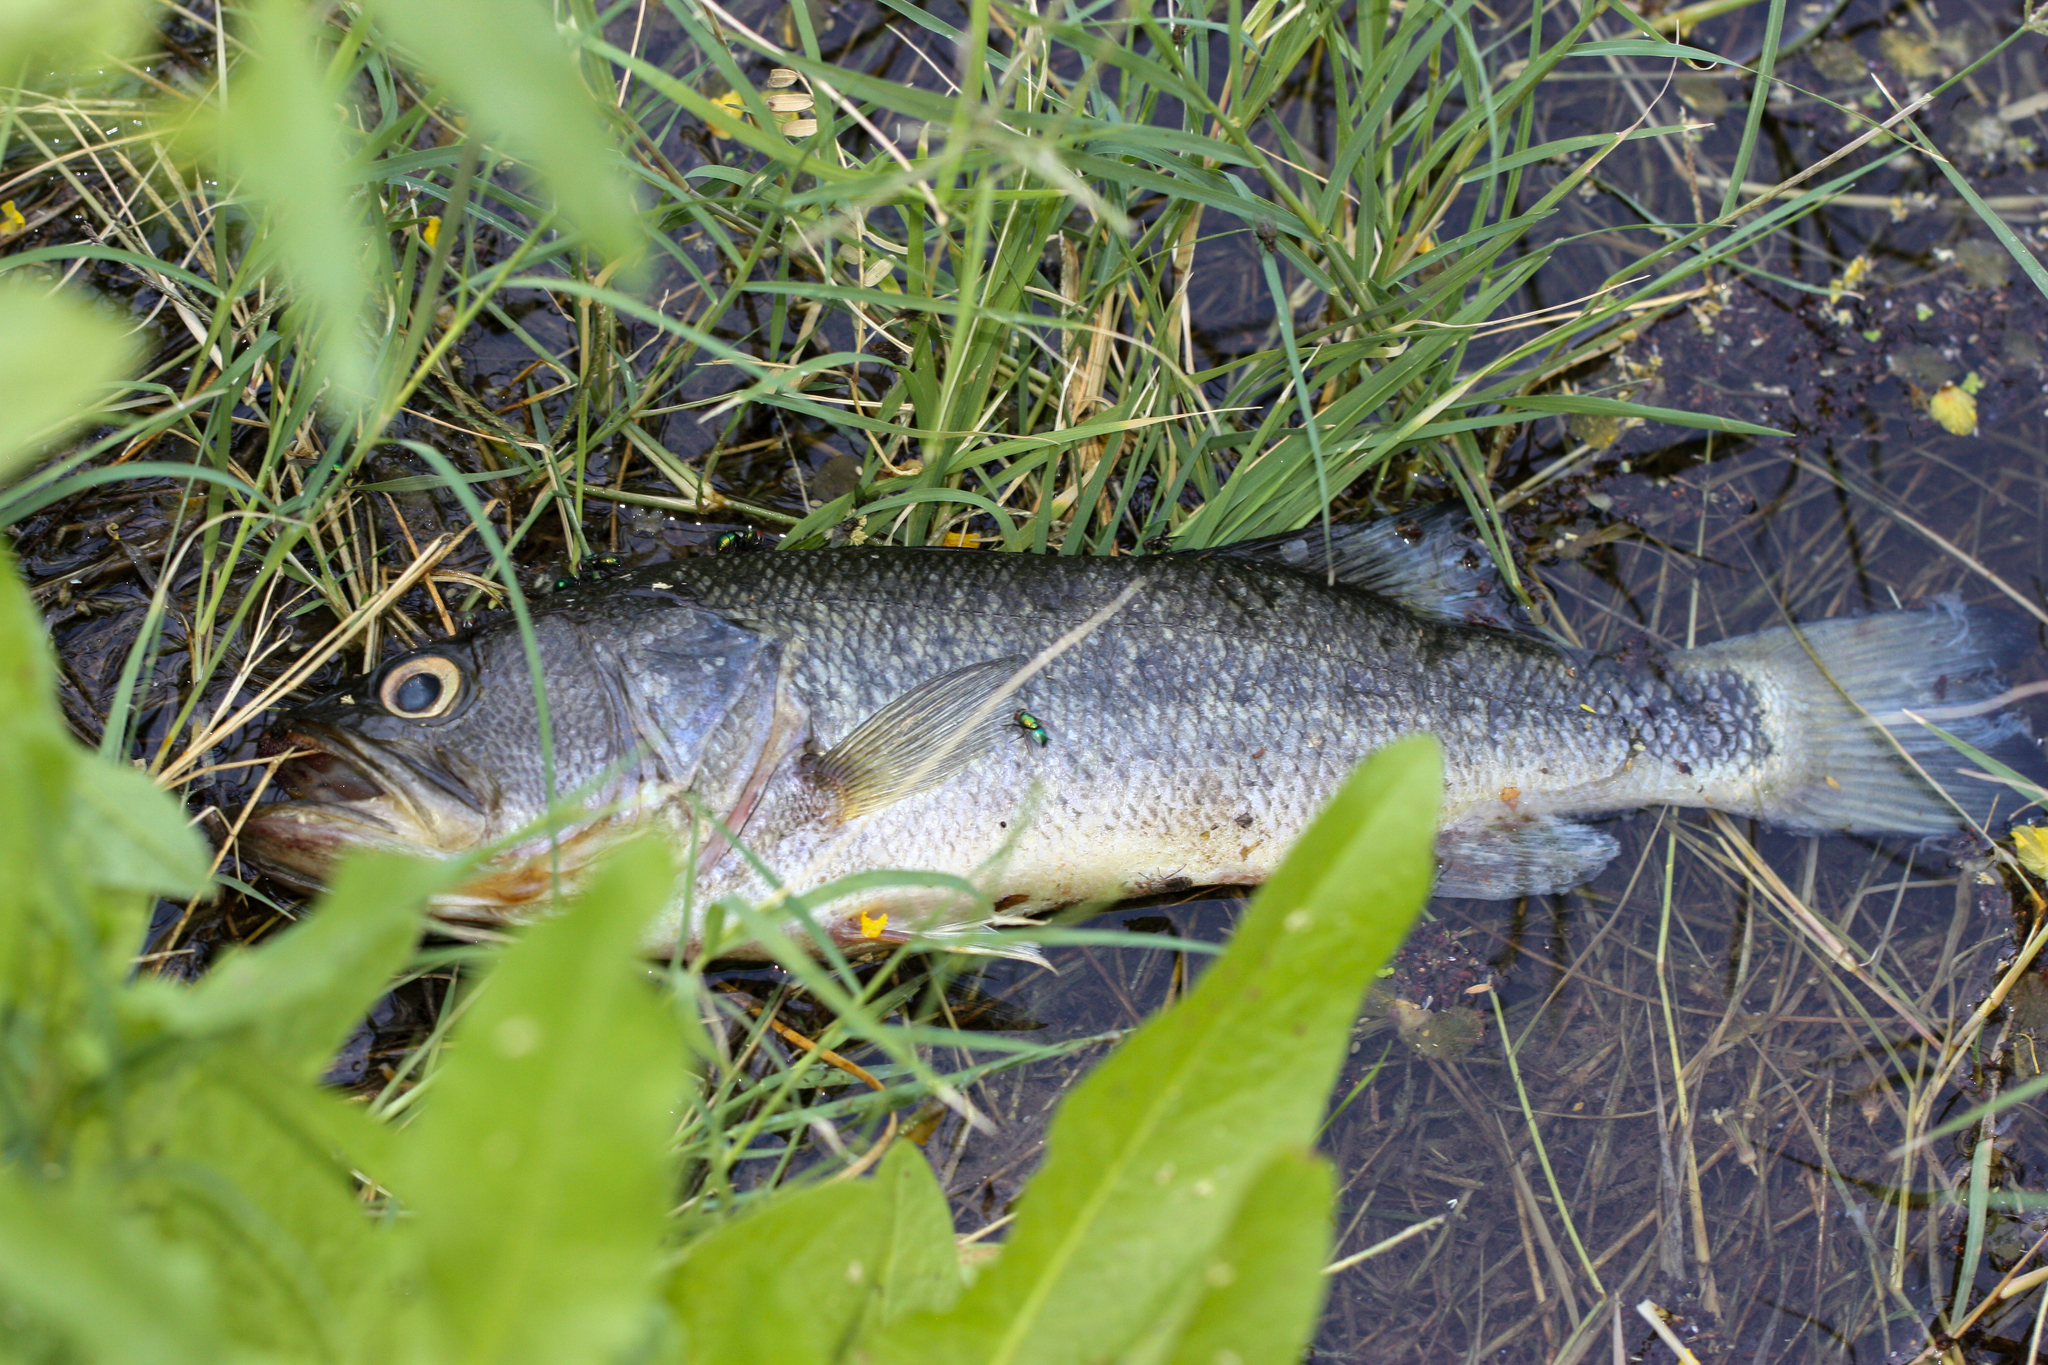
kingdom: Animalia
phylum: Chordata
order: Perciformes
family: Centrarchidae
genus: Micropterus
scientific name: Micropterus
